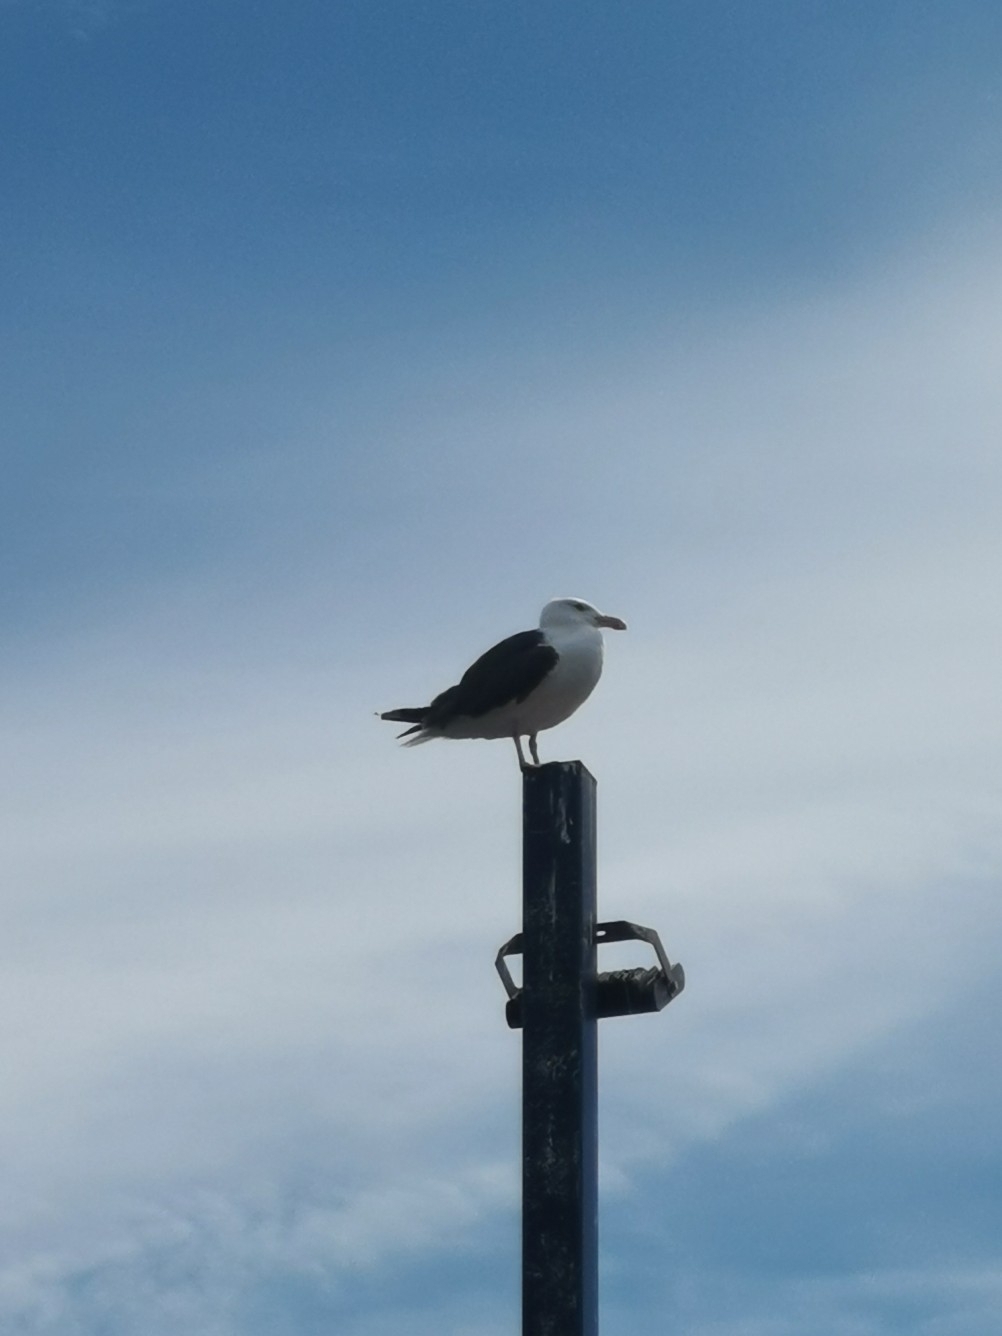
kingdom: Animalia
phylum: Chordata
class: Aves
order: Charadriiformes
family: Laridae
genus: Larus
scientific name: Larus marinus
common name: Great black-backed gull
